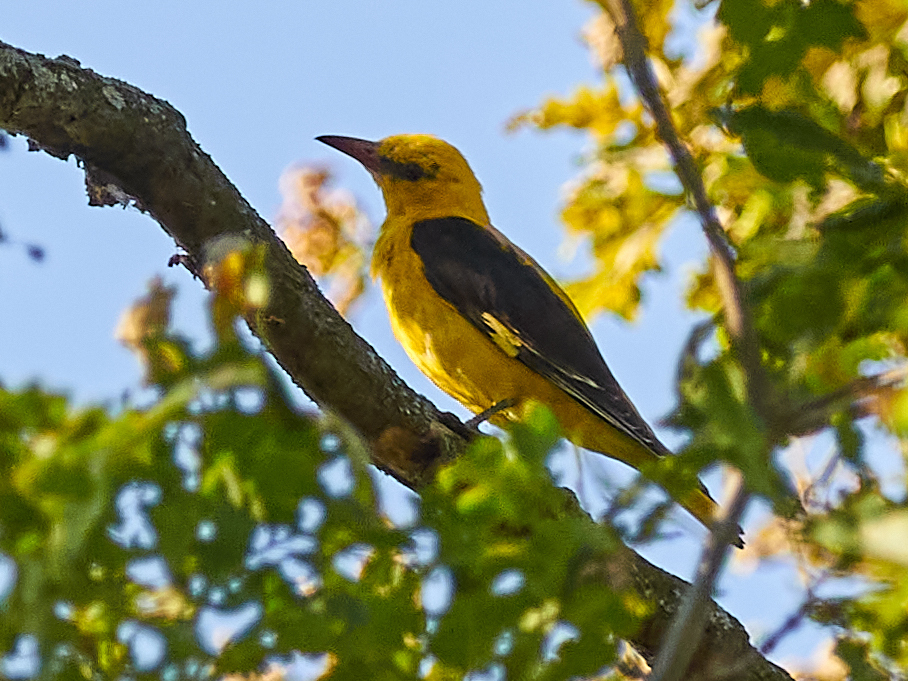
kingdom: Animalia
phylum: Chordata
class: Aves
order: Passeriformes
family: Oriolidae
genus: Oriolus
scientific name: Oriolus oriolus
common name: Eurasian golden oriole
